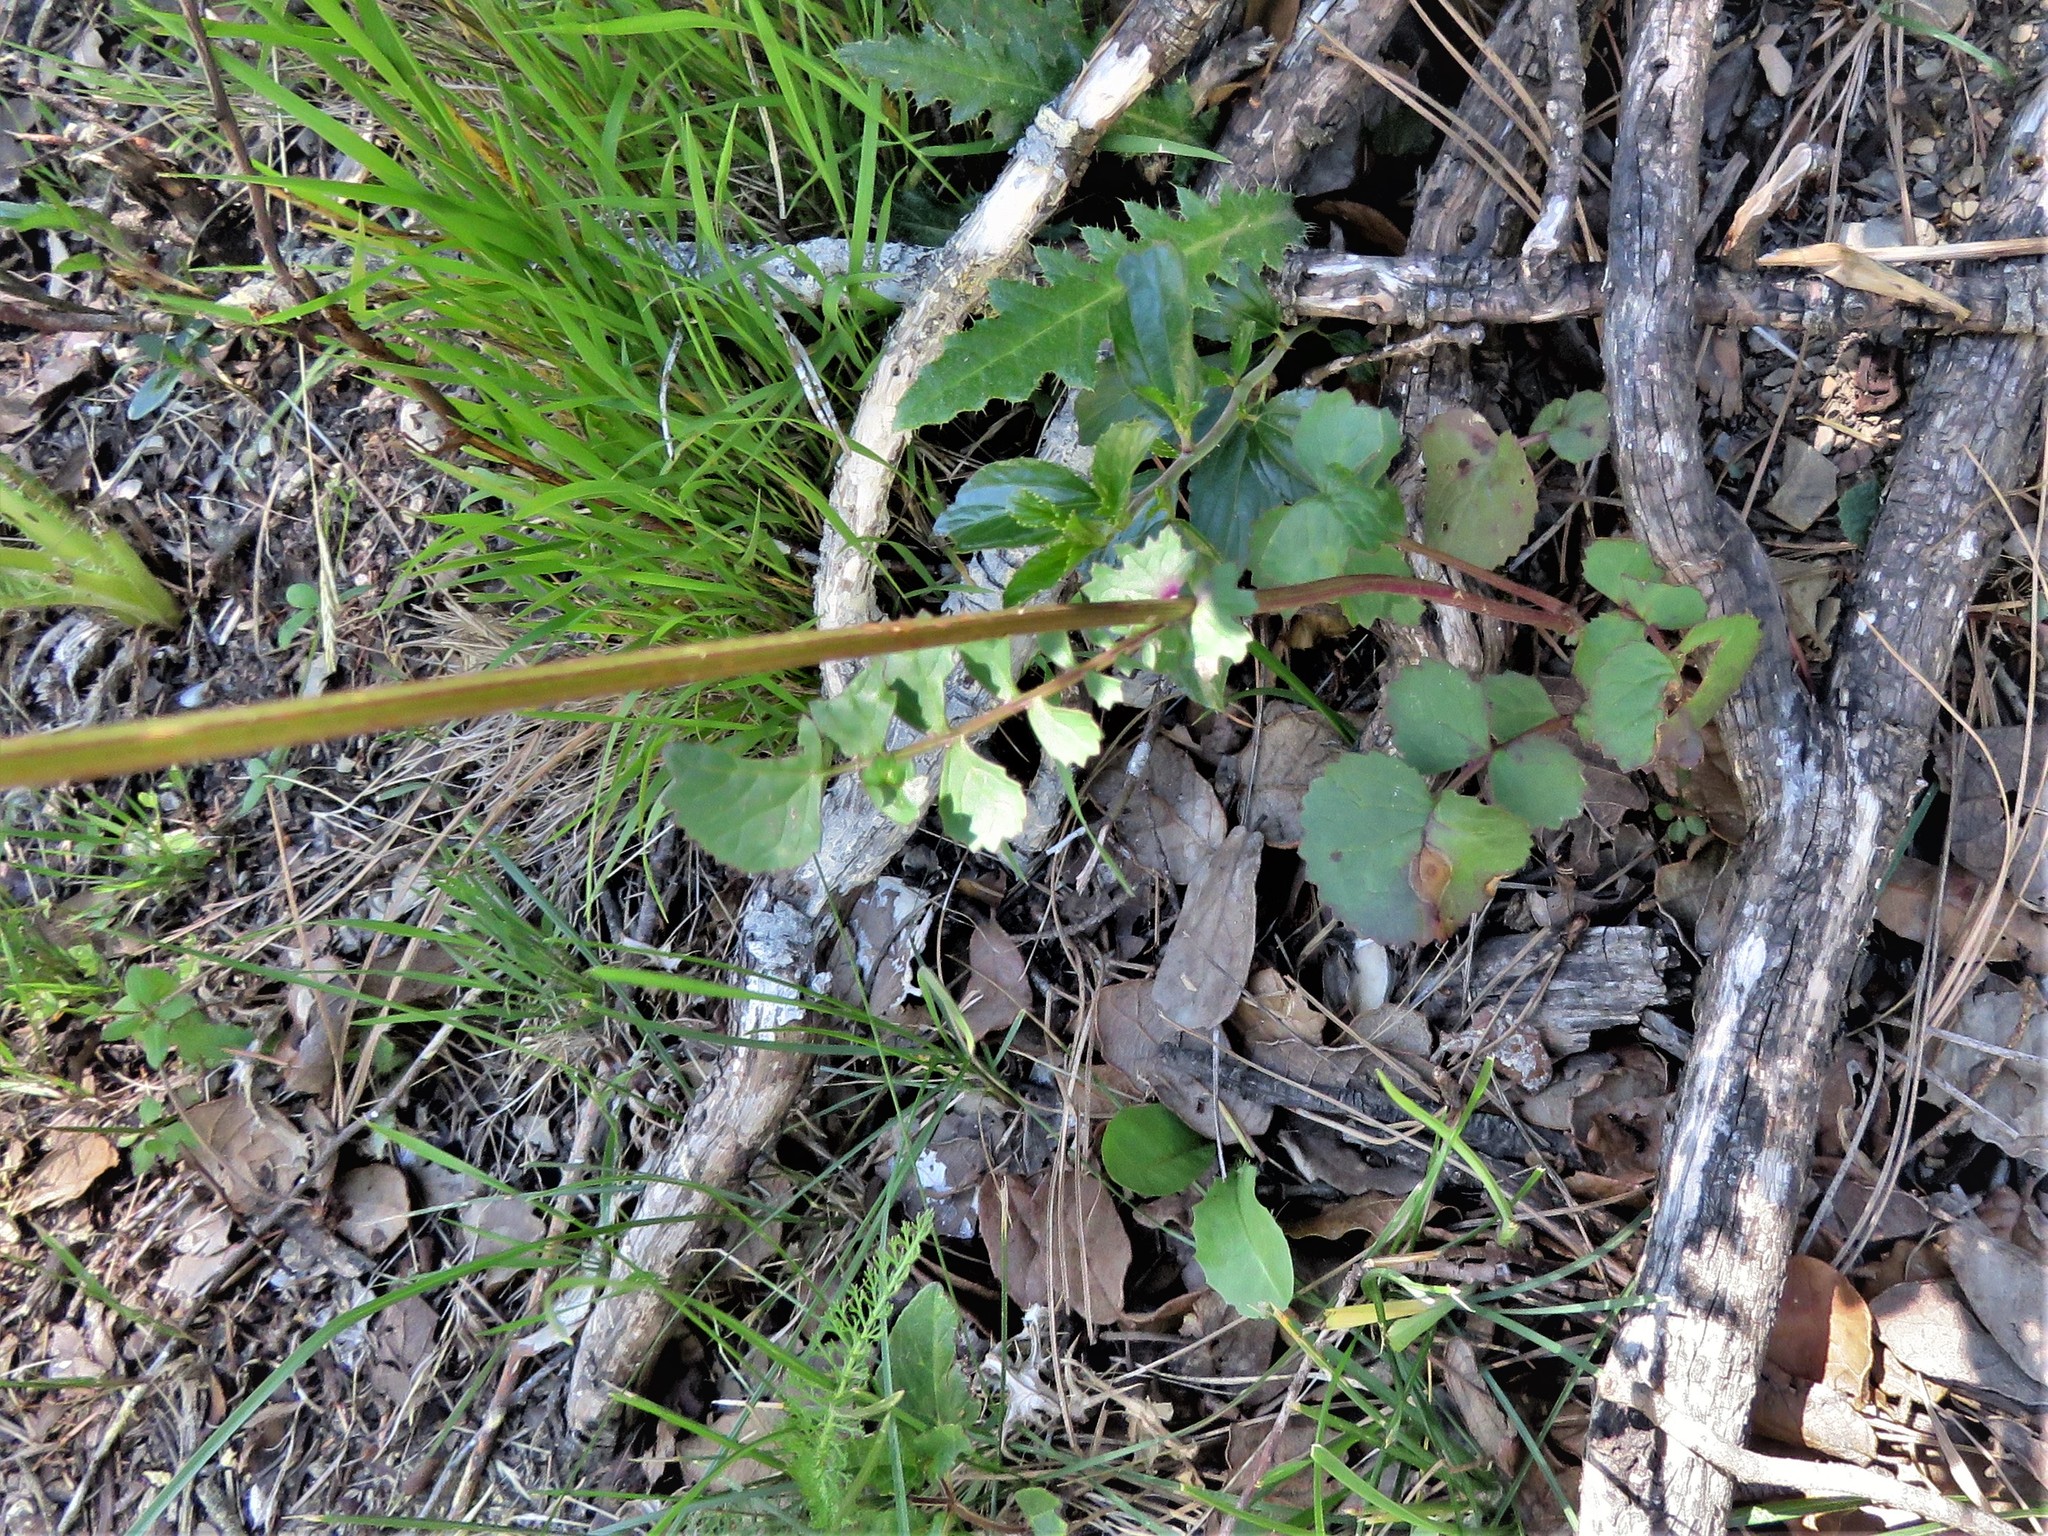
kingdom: Plantae
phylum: Tracheophyta
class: Magnoliopsida
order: Asterales
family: Asteraceae
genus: Packera
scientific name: Packera coahuilensis
